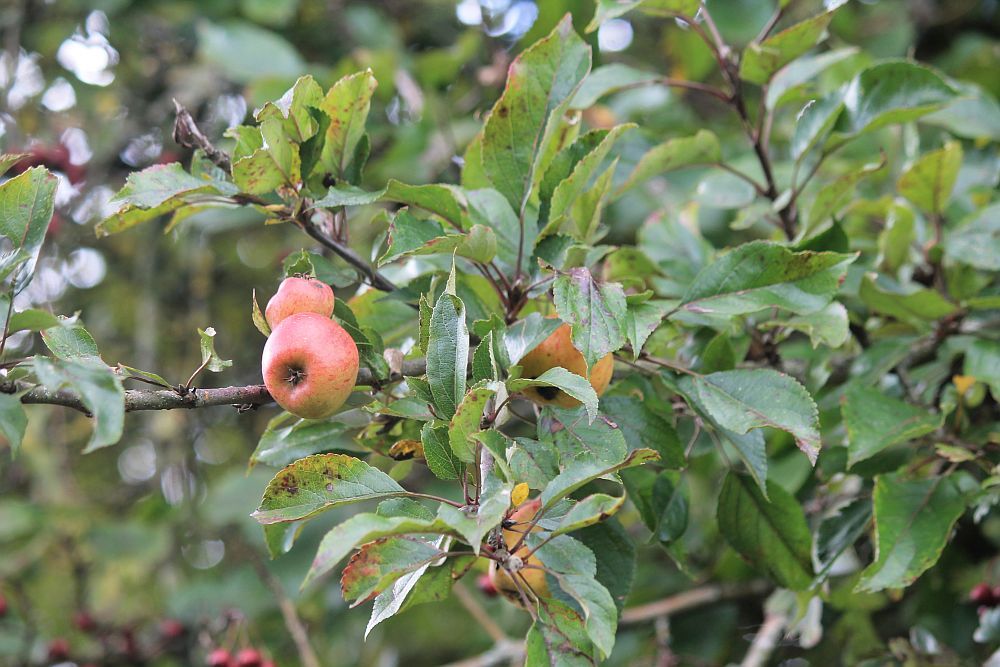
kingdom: Plantae
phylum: Tracheophyta
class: Magnoliopsida
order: Rosales
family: Rosaceae
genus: Malus
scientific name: Malus domestica
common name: Apple
